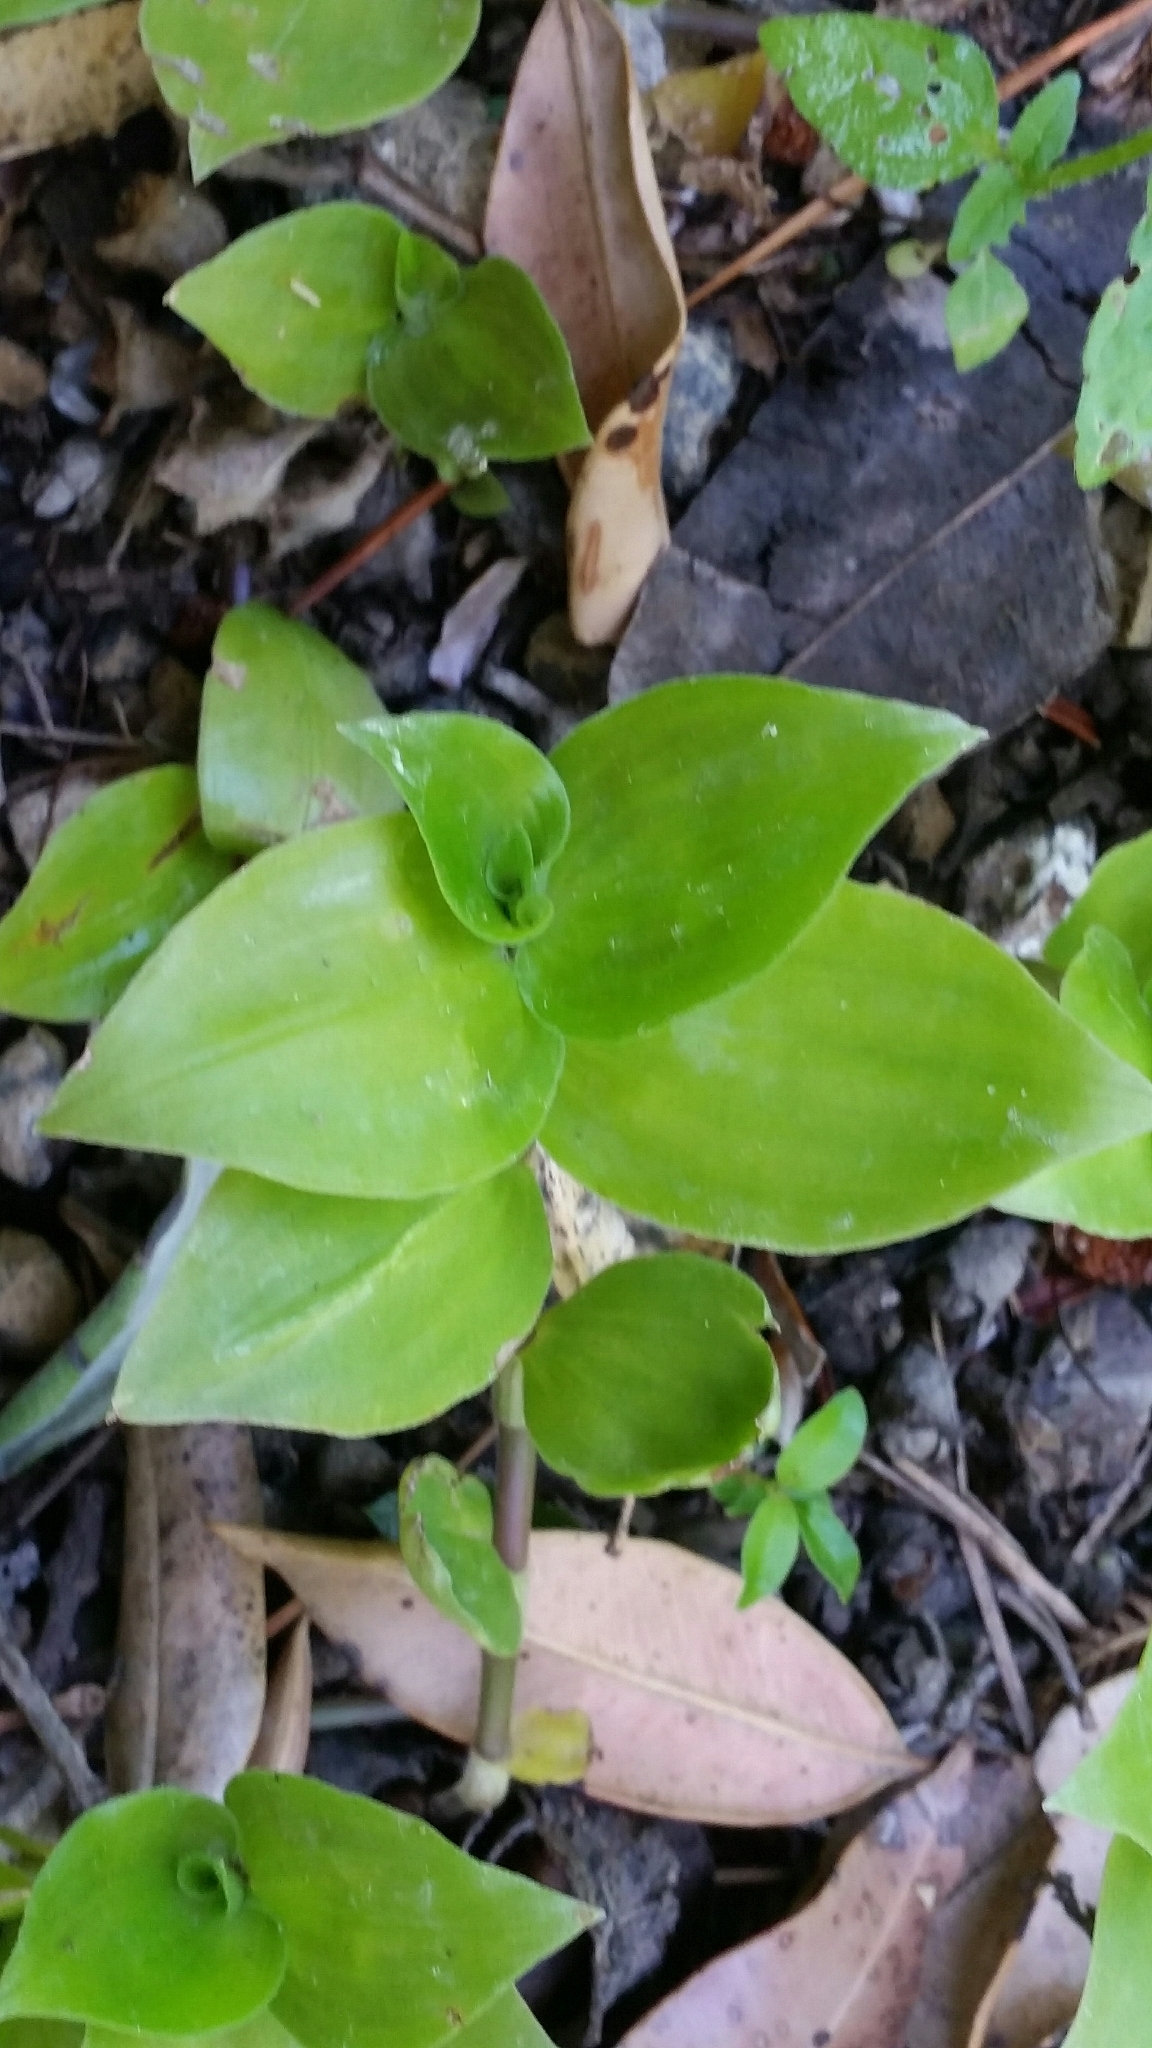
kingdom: Plantae
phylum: Tracheophyta
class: Liliopsida
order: Commelinales
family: Commelinaceae
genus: Tradescantia
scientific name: Tradescantia fluminensis
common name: Wandering-jew
